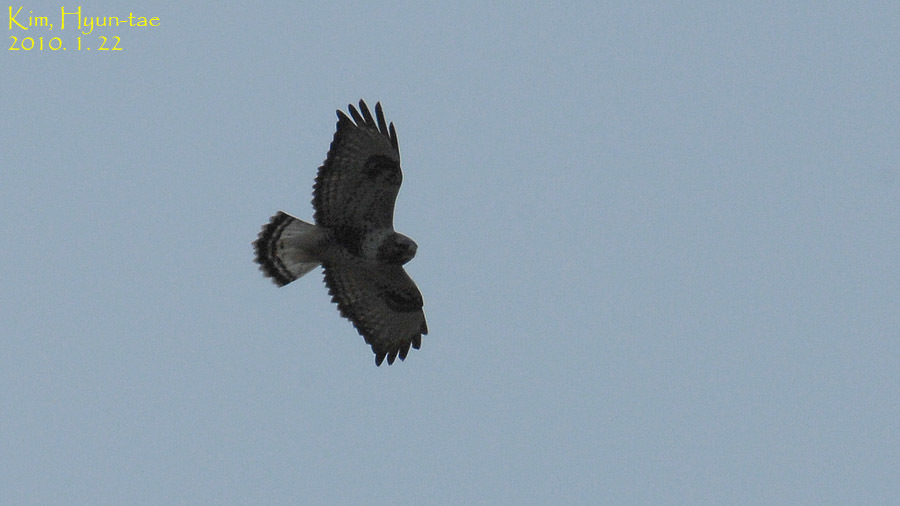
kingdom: Animalia
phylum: Chordata
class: Aves
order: Accipitriformes
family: Accipitridae
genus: Buteo
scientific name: Buteo lagopus
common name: Rough-legged buzzard
